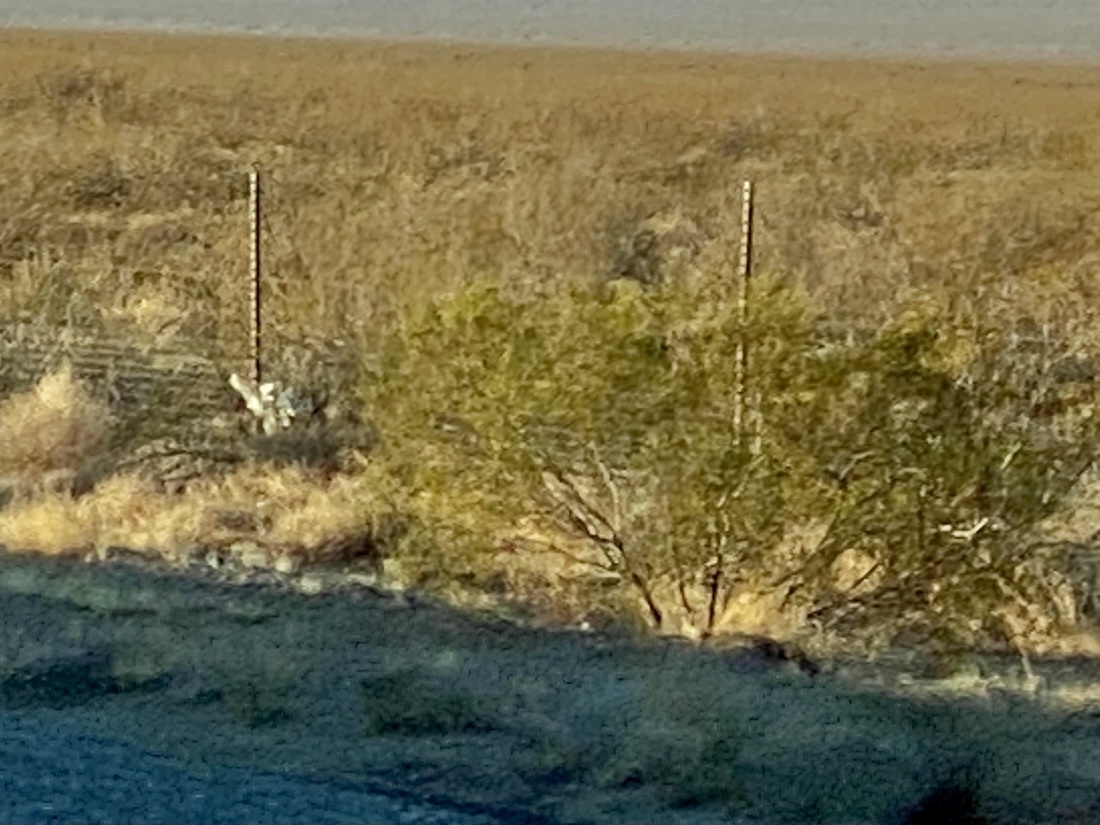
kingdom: Plantae
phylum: Tracheophyta
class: Magnoliopsida
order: Zygophyllales
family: Zygophyllaceae
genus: Larrea
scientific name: Larrea tridentata
